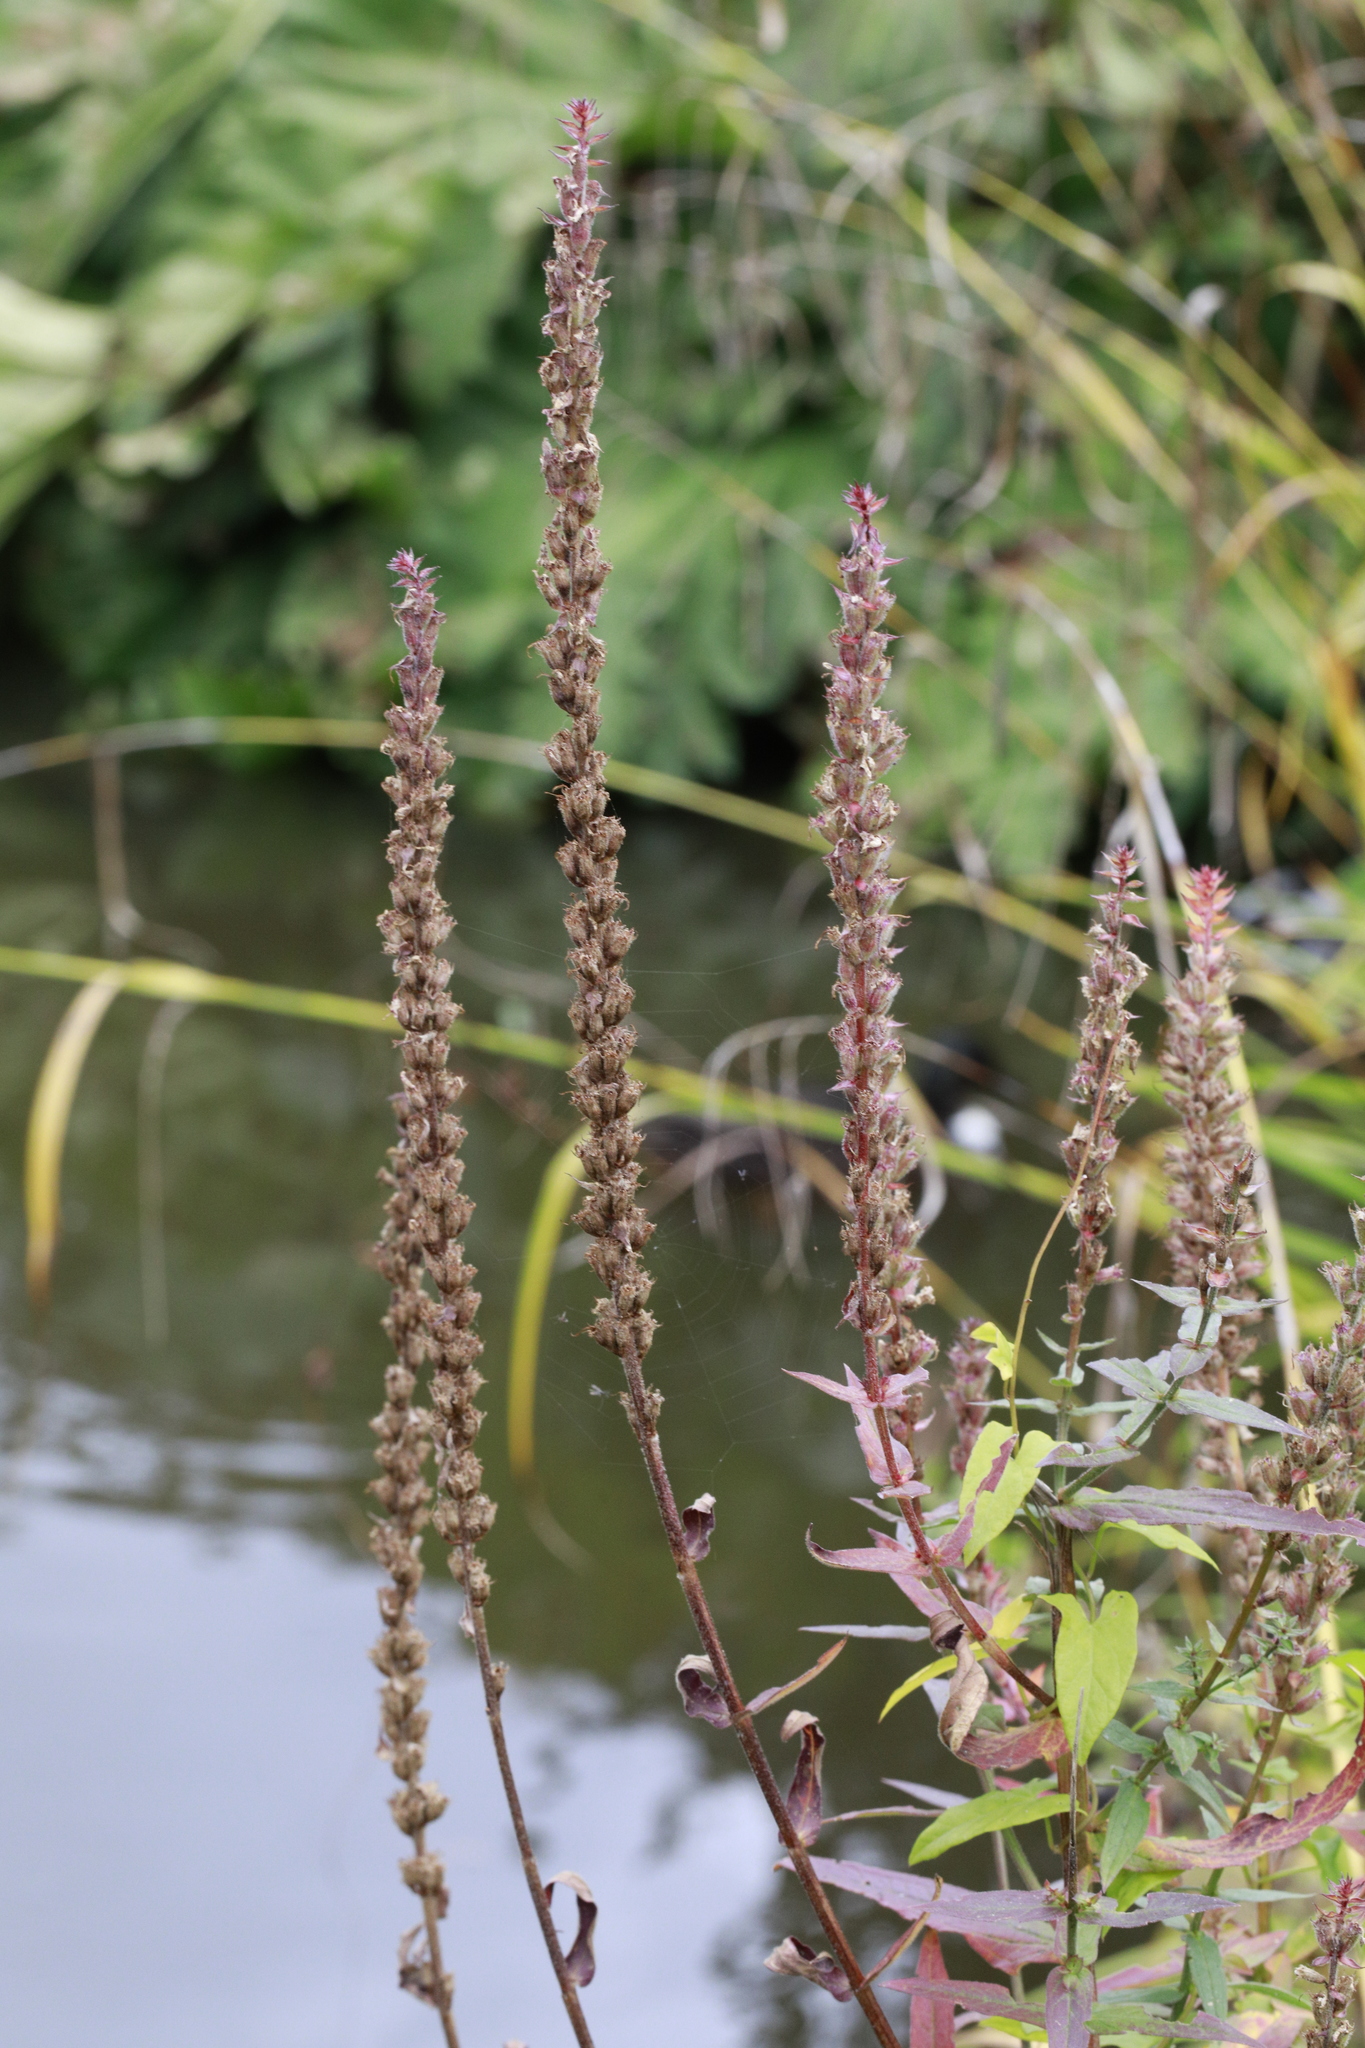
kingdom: Plantae
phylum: Tracheophyta
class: Magnoliopsida
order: Myrtales
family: Lythraceae
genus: Lythrum
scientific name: Lythrum salicaria
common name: Purple loosestrife
